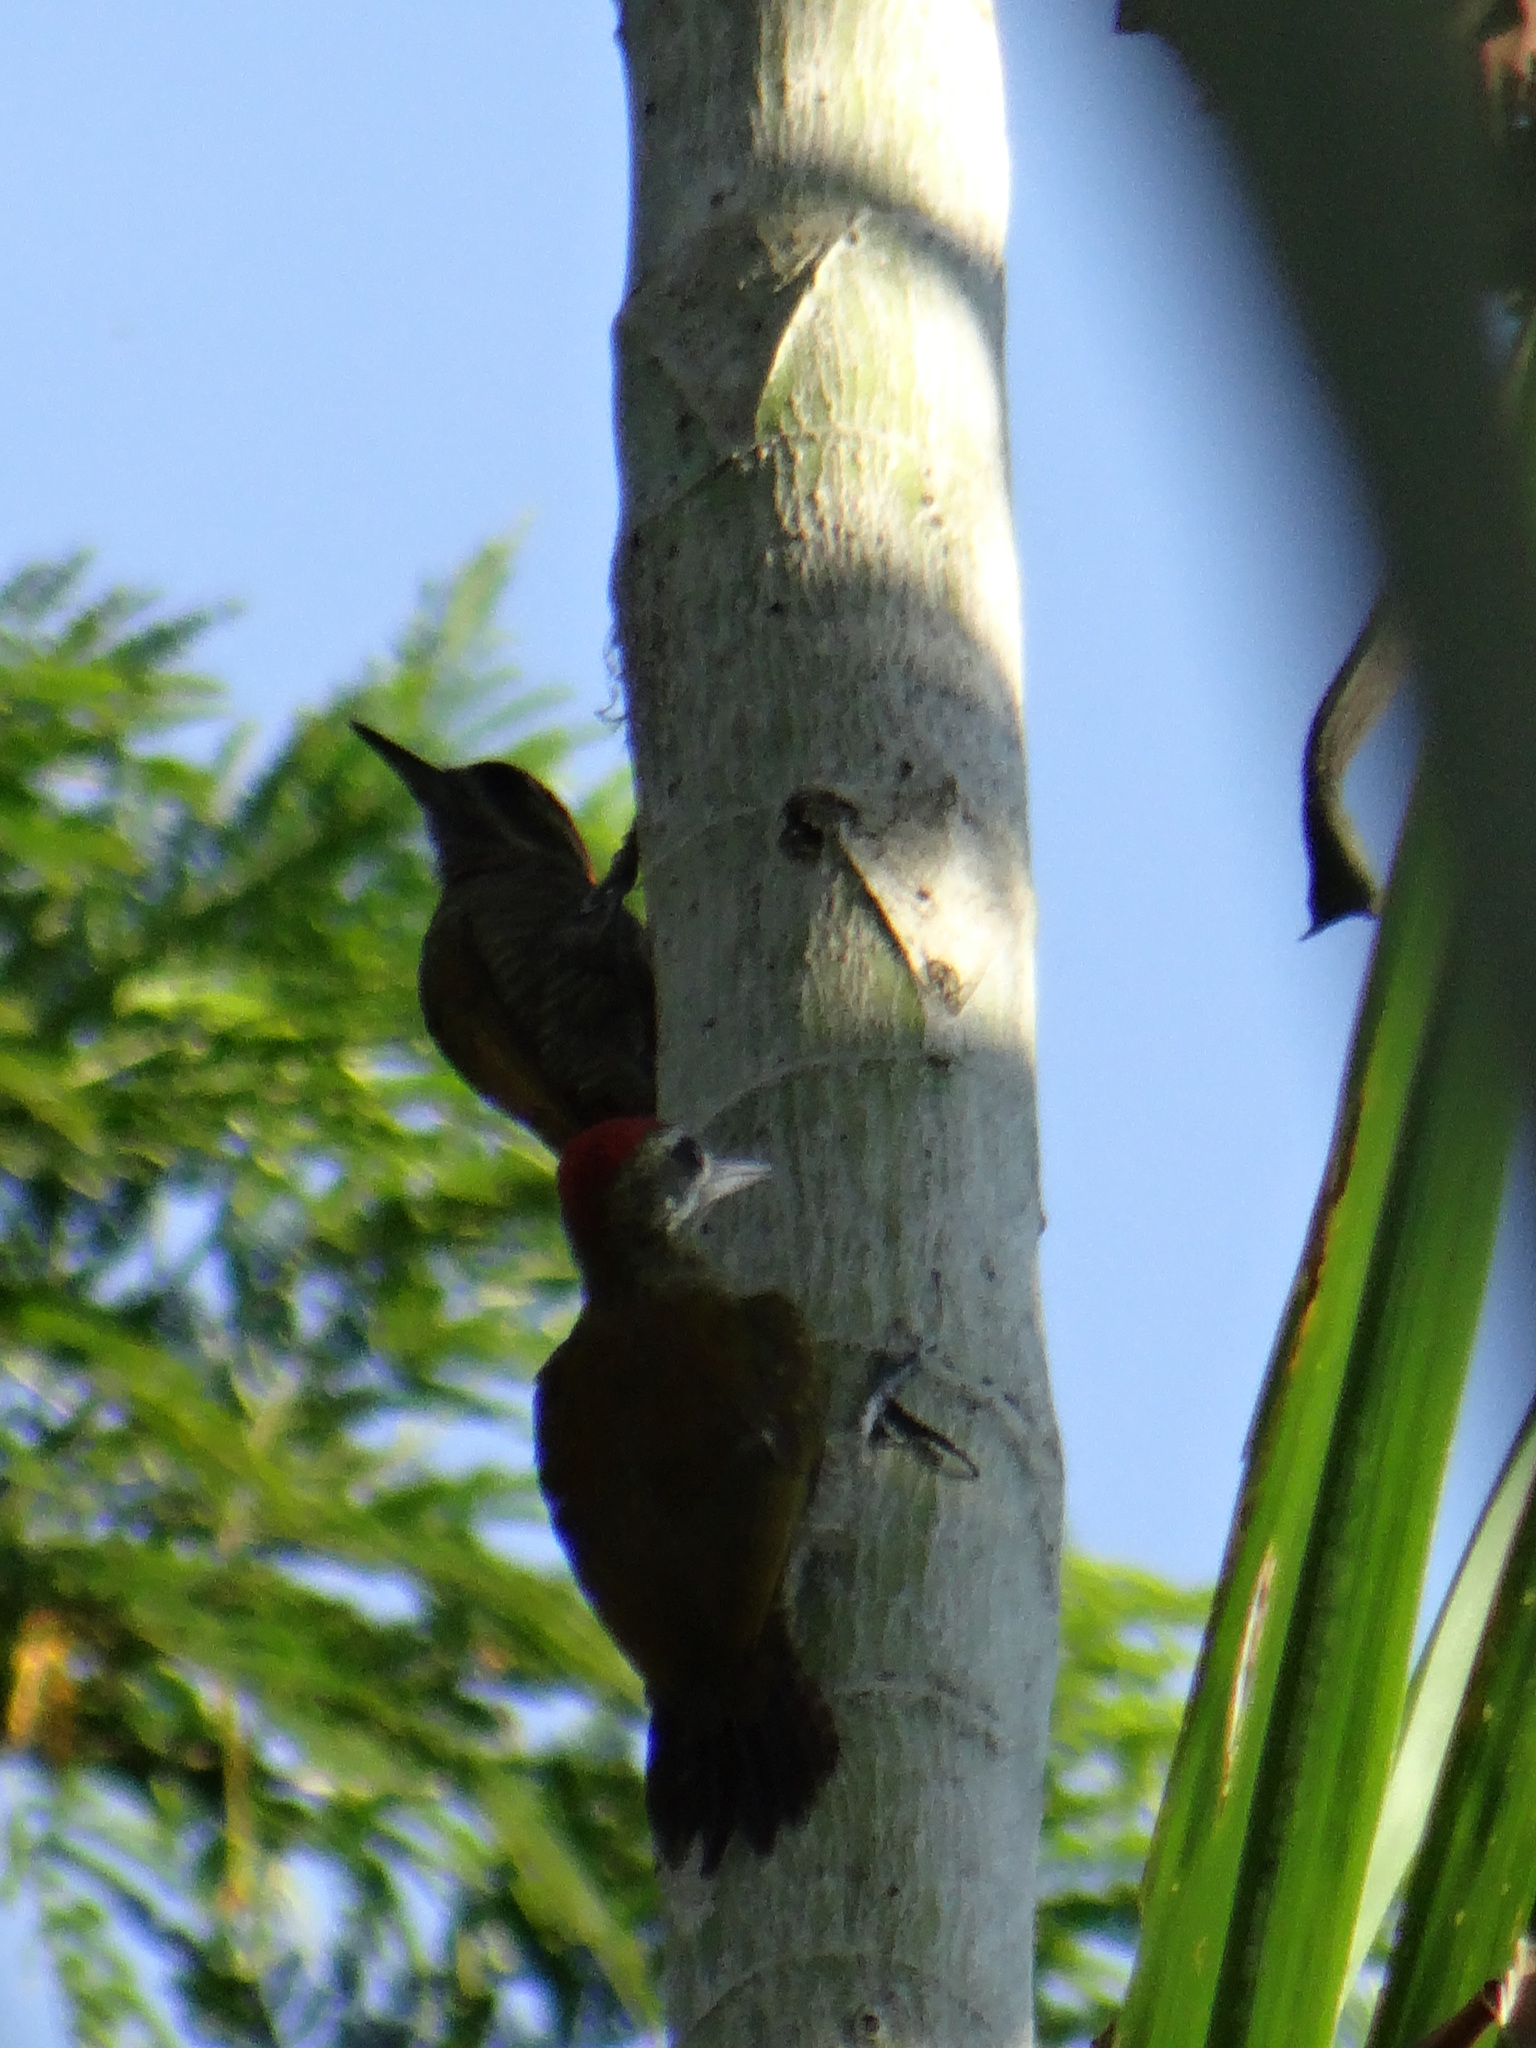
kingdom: Animalia
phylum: Chordata
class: Aves
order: Piciformes
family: Picidae
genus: Veniliornis
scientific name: Veniliornis passerinus
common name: Little woodpecker
